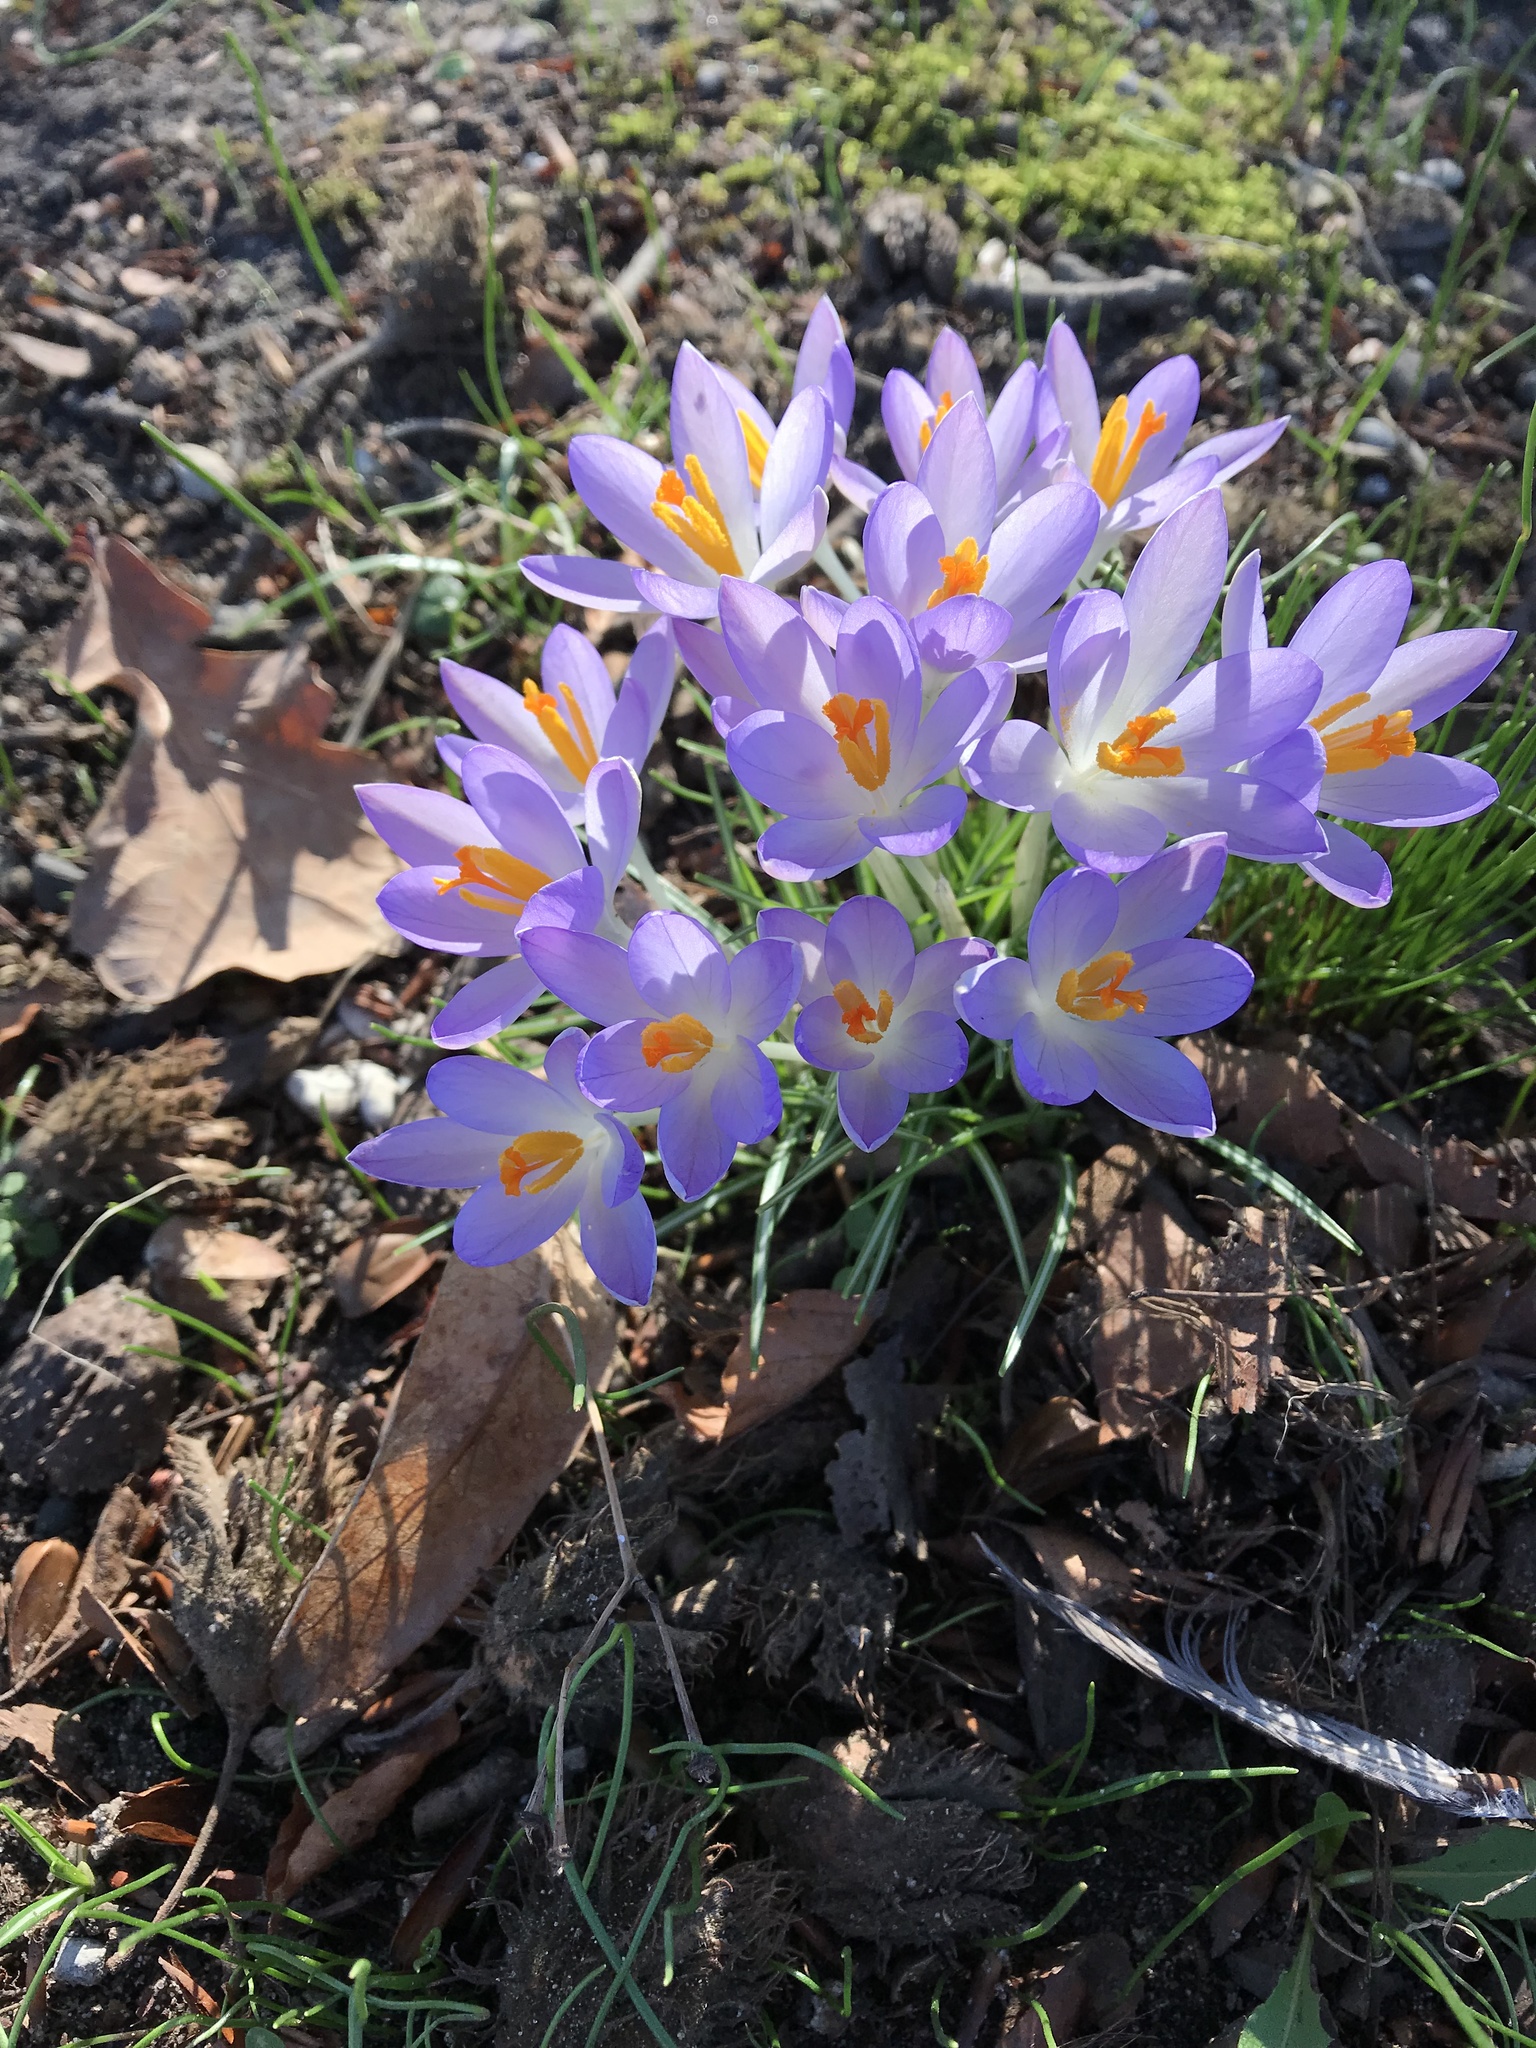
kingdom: Plantae
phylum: Tracheophyta
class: Liliopsida
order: Asparagales
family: Iridaceae
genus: Crocus
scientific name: Crocus tommasinianus
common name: Early crocus
